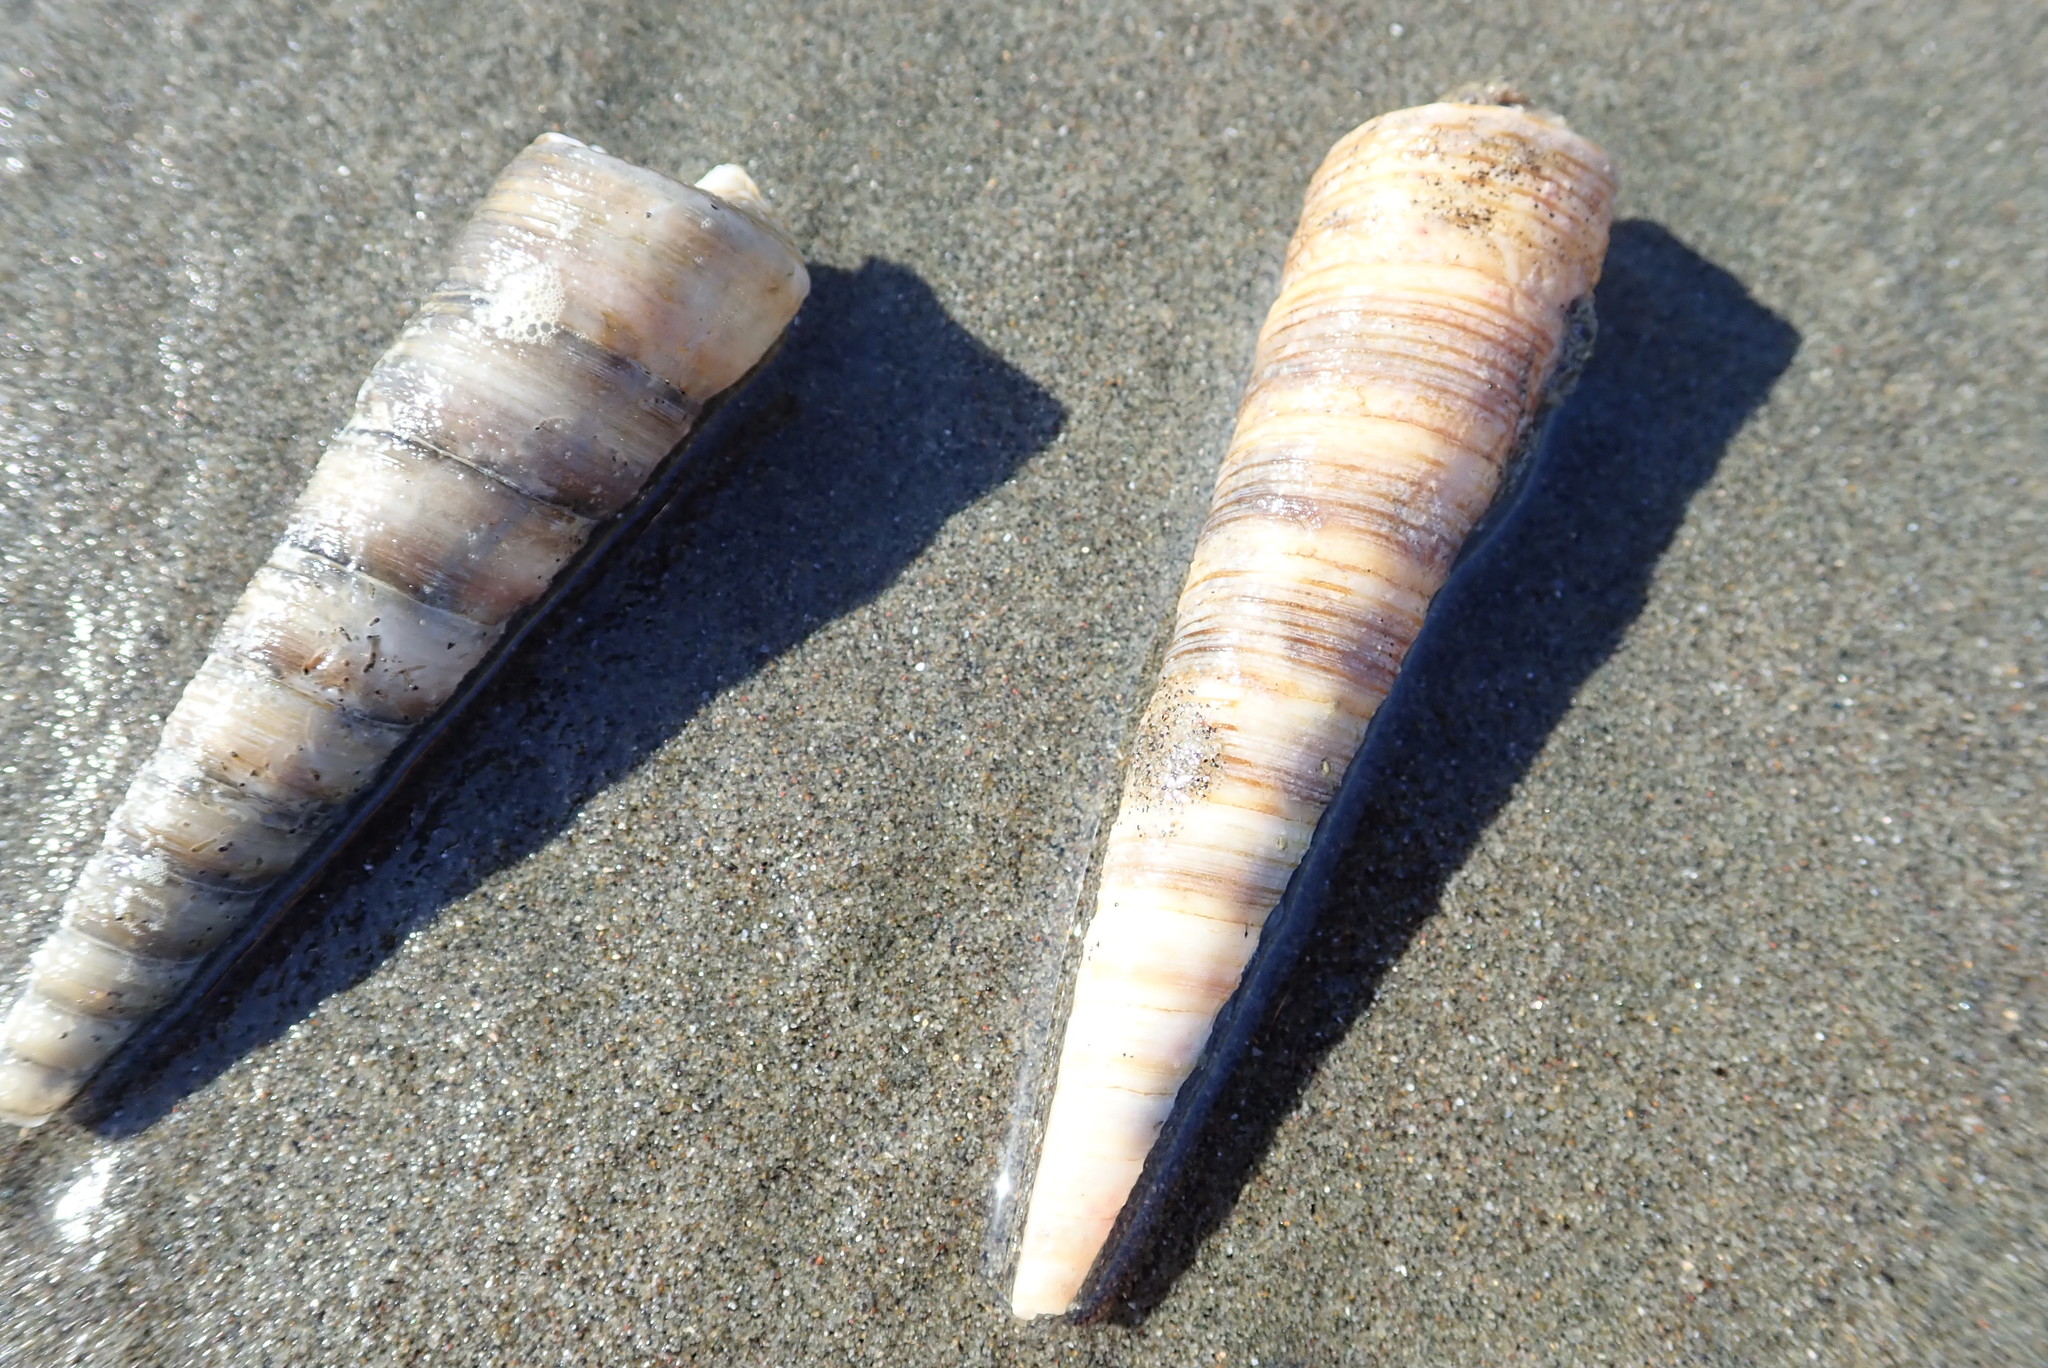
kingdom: Animalia
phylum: Mollusca
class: Gastropoda
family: Turritellidae
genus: Zeacolpus
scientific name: Zeacolpus vittatus
